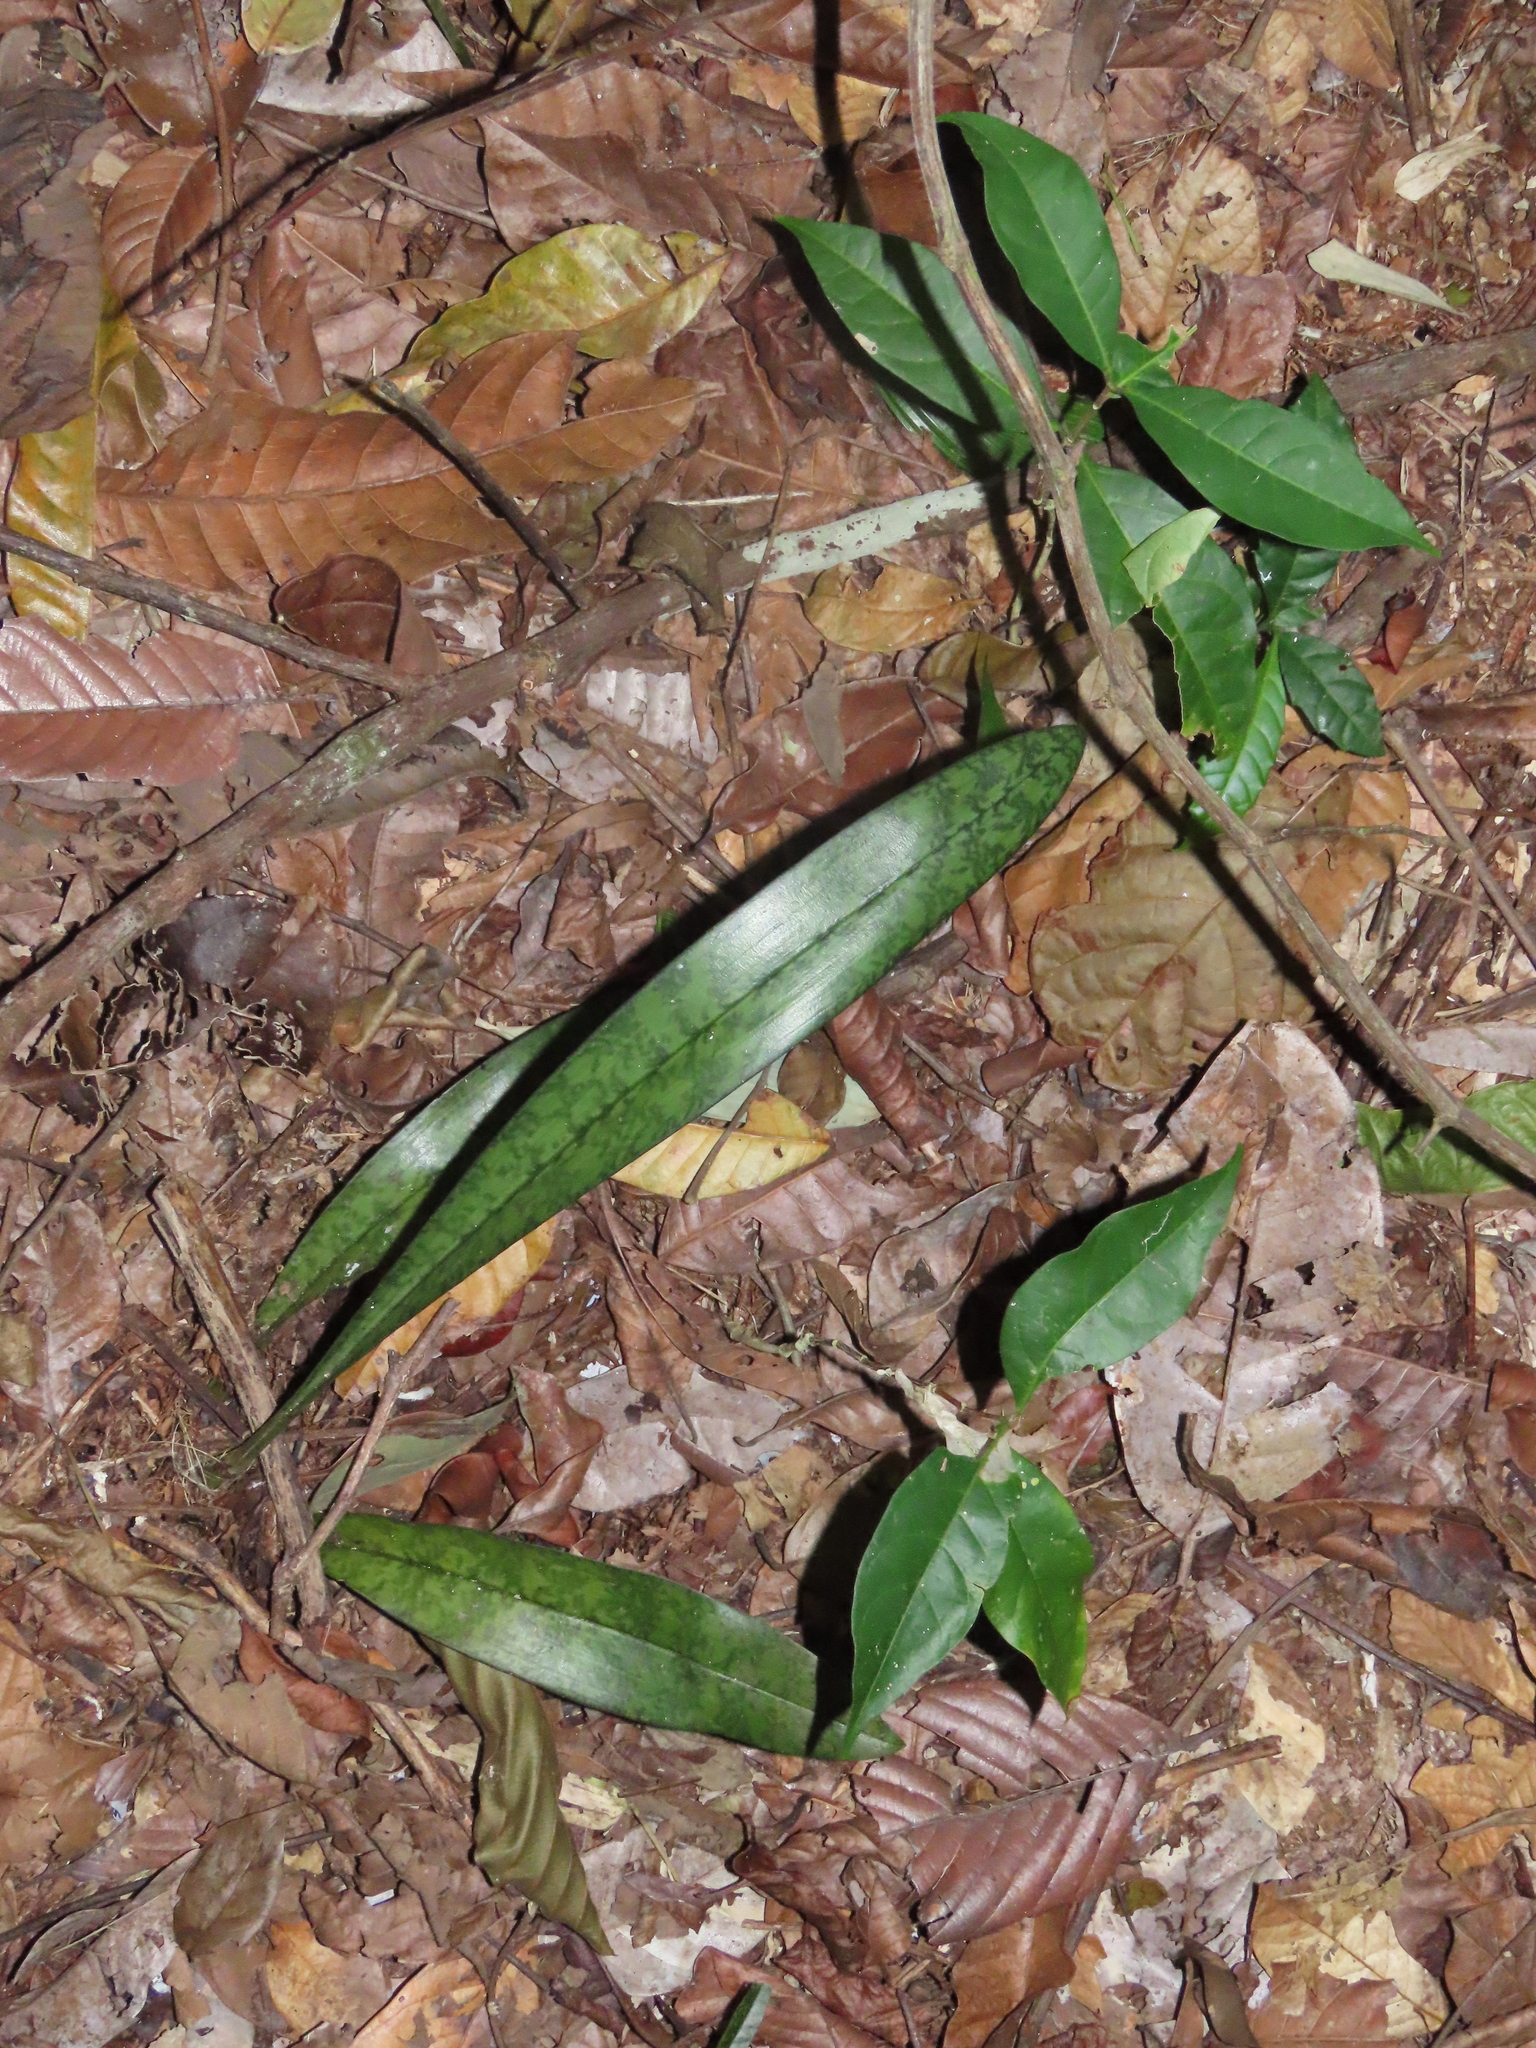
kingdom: Plantae
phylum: Tracheophyta
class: Liliopsida
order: Asparagales
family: Orchidaceae
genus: Eulophia
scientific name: Eulophia maculata
